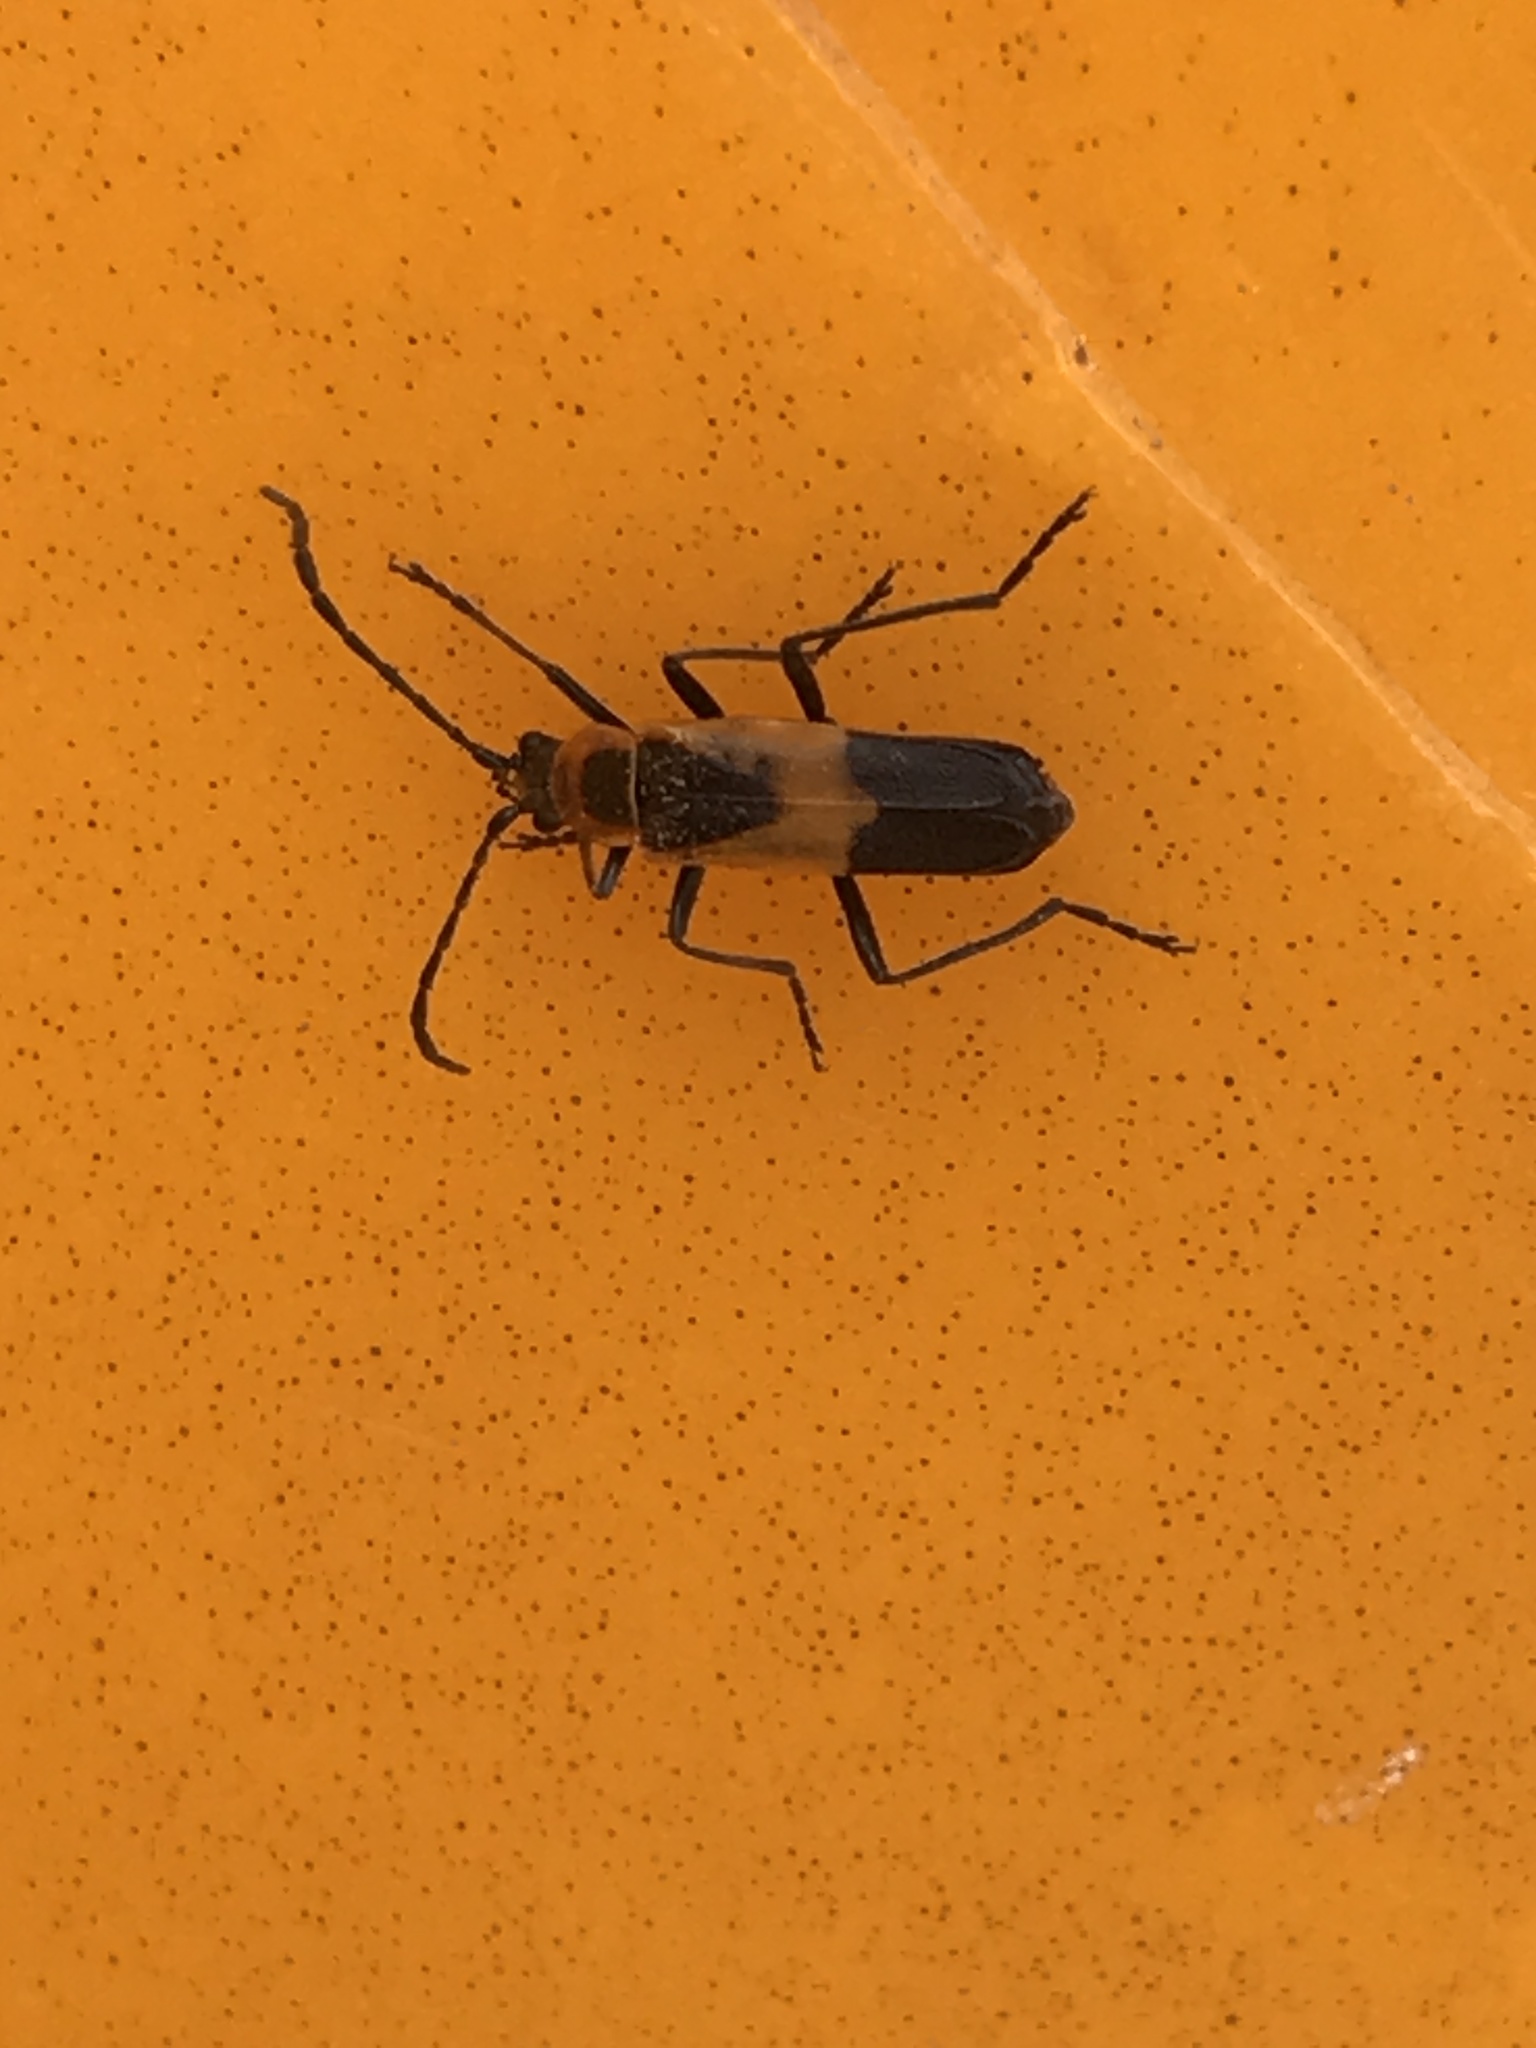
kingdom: Animalia
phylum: Arthropoda
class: Insecta
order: Coleoptera
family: Cantharidae
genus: Chauliognathus
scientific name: Chauliognathus basalis
